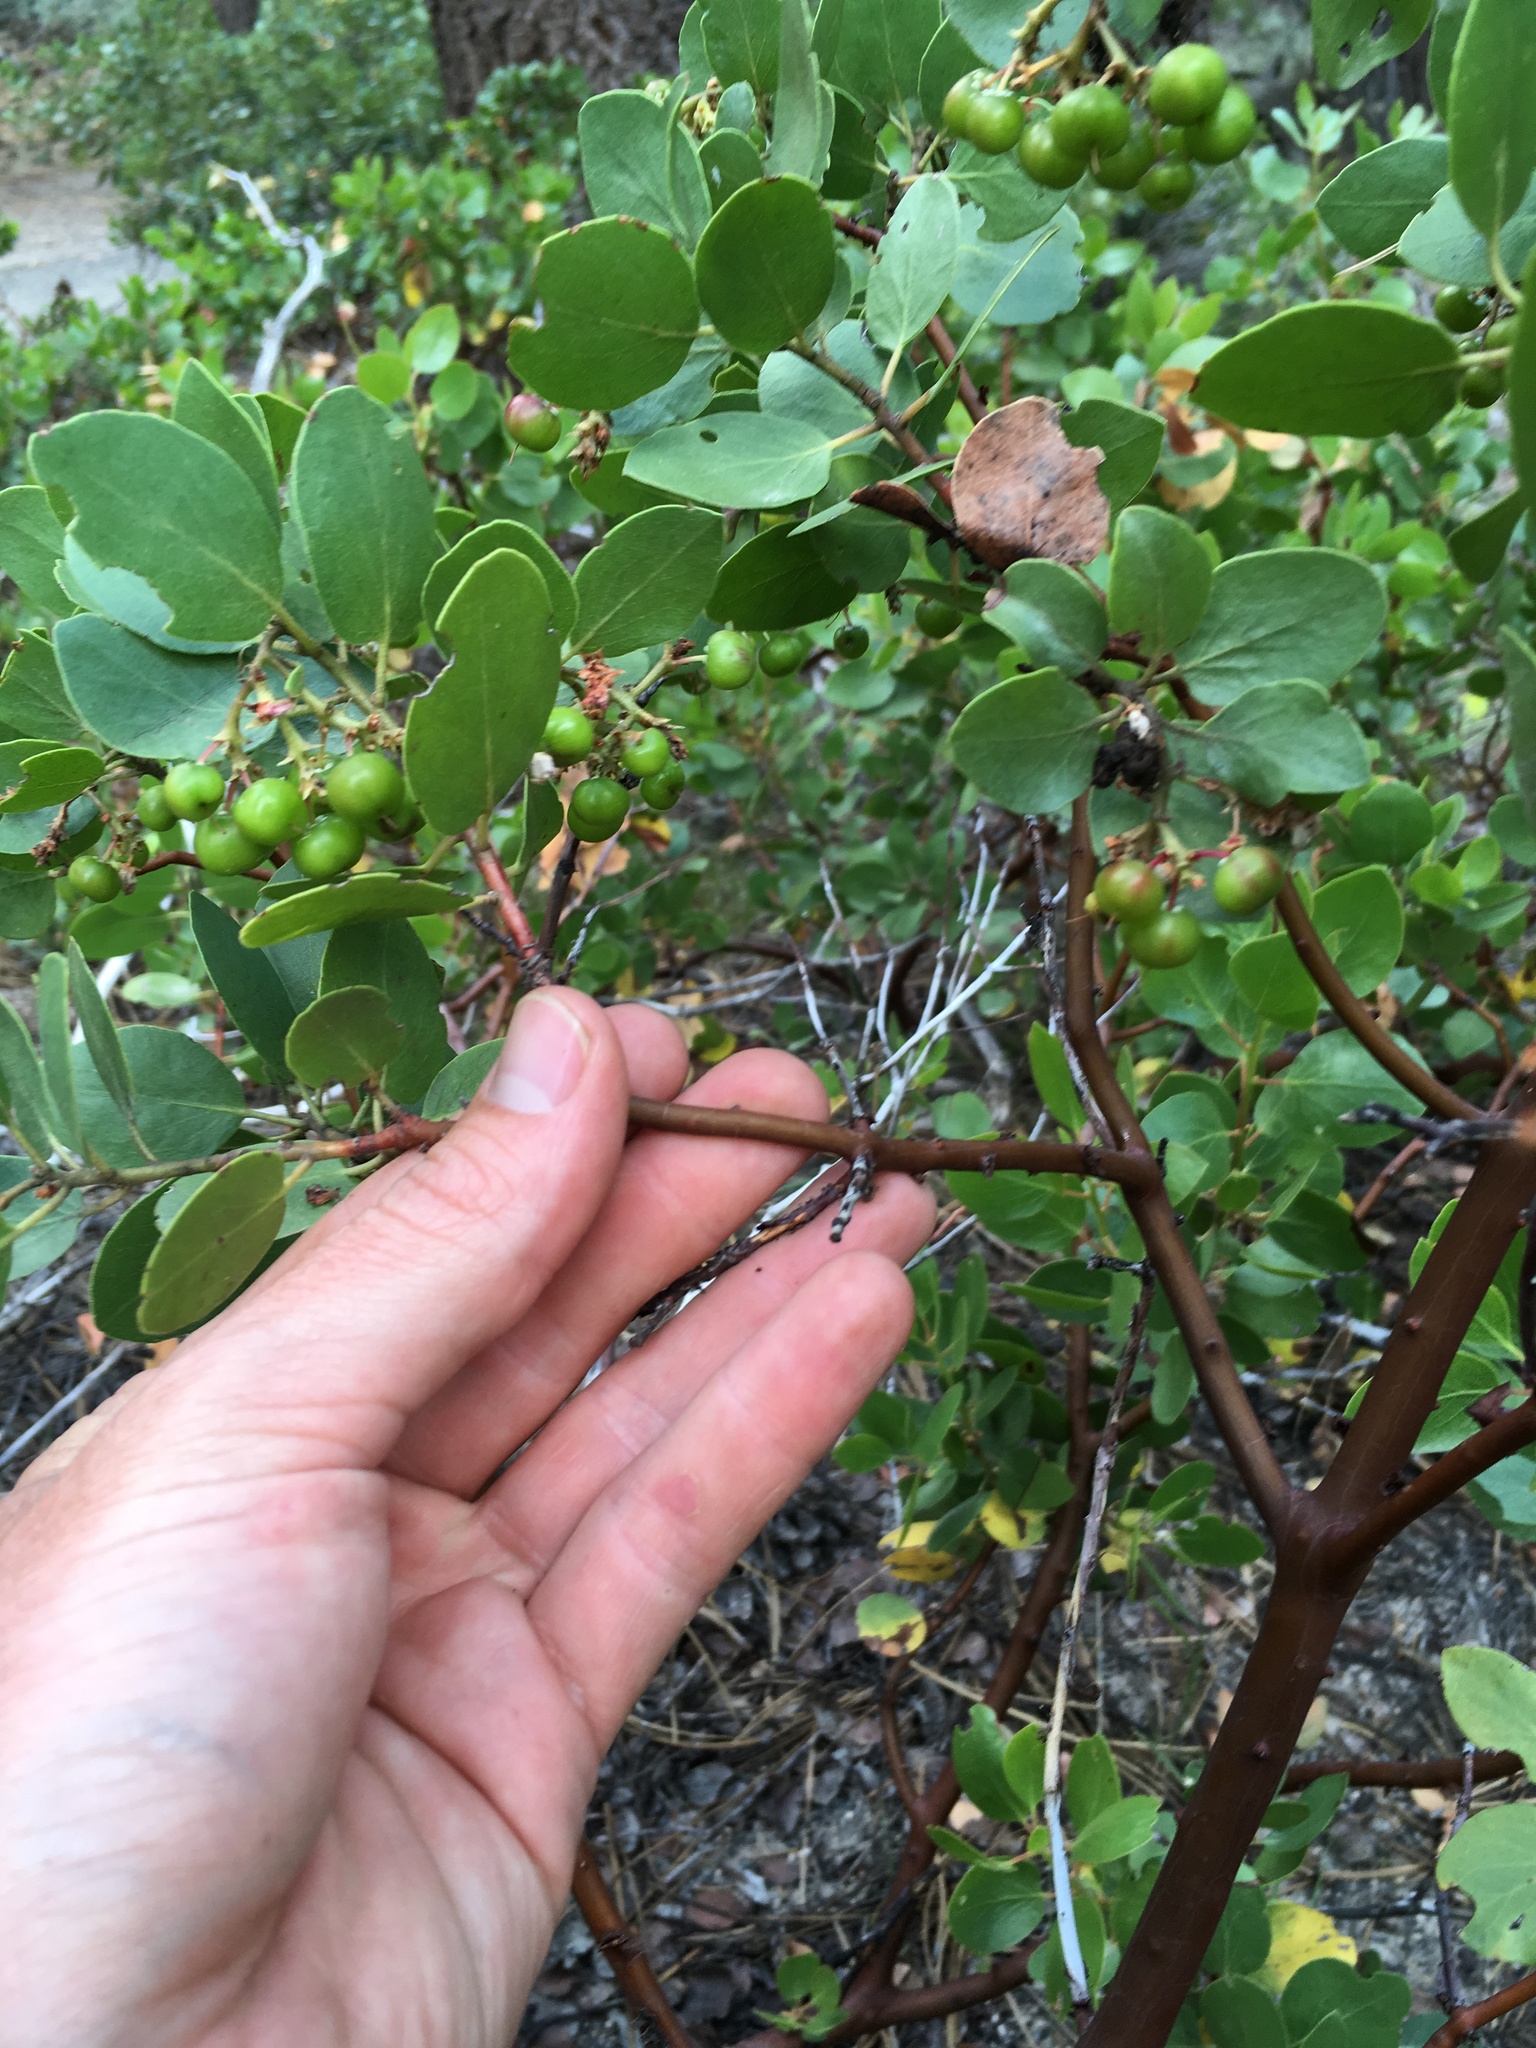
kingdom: Plantae
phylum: Tracheophyta
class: Magnoliopsida
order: Ericales
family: Ericaceae
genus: Arctostaphylos
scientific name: Arctostaphylos patula
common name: Green-leaf manzanita
